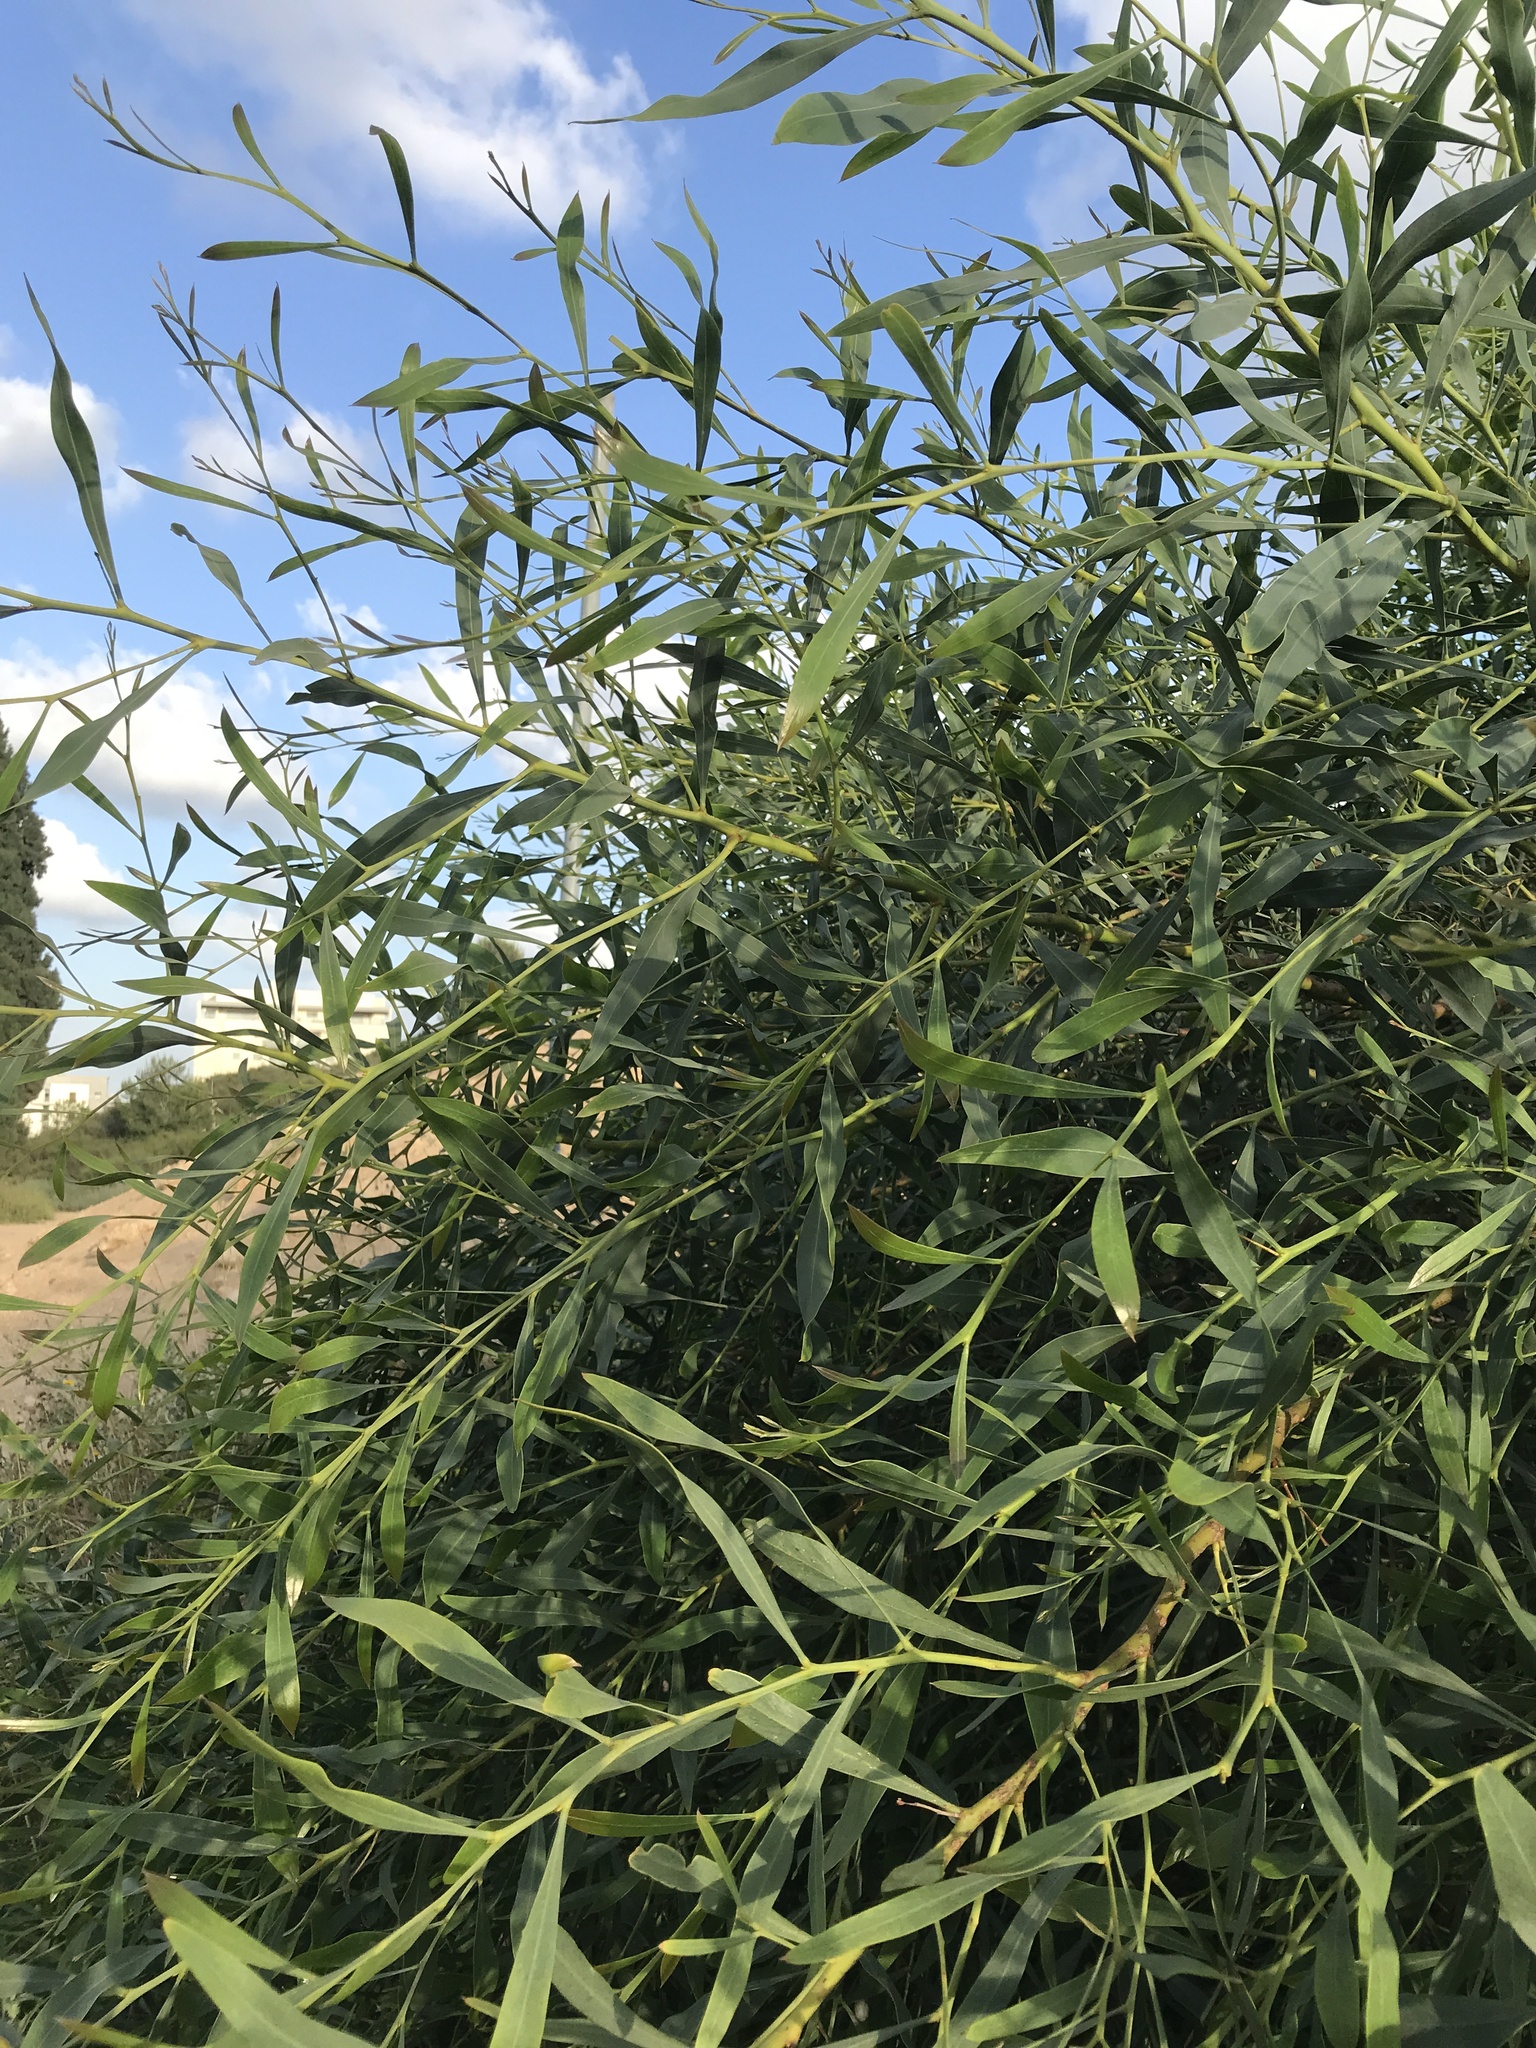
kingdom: Plantae
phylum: Tracheophyta
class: Magnoliopsida
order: Fabales
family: Fabaceae
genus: Acacia
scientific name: Acacia saligna
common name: Orange wattle
